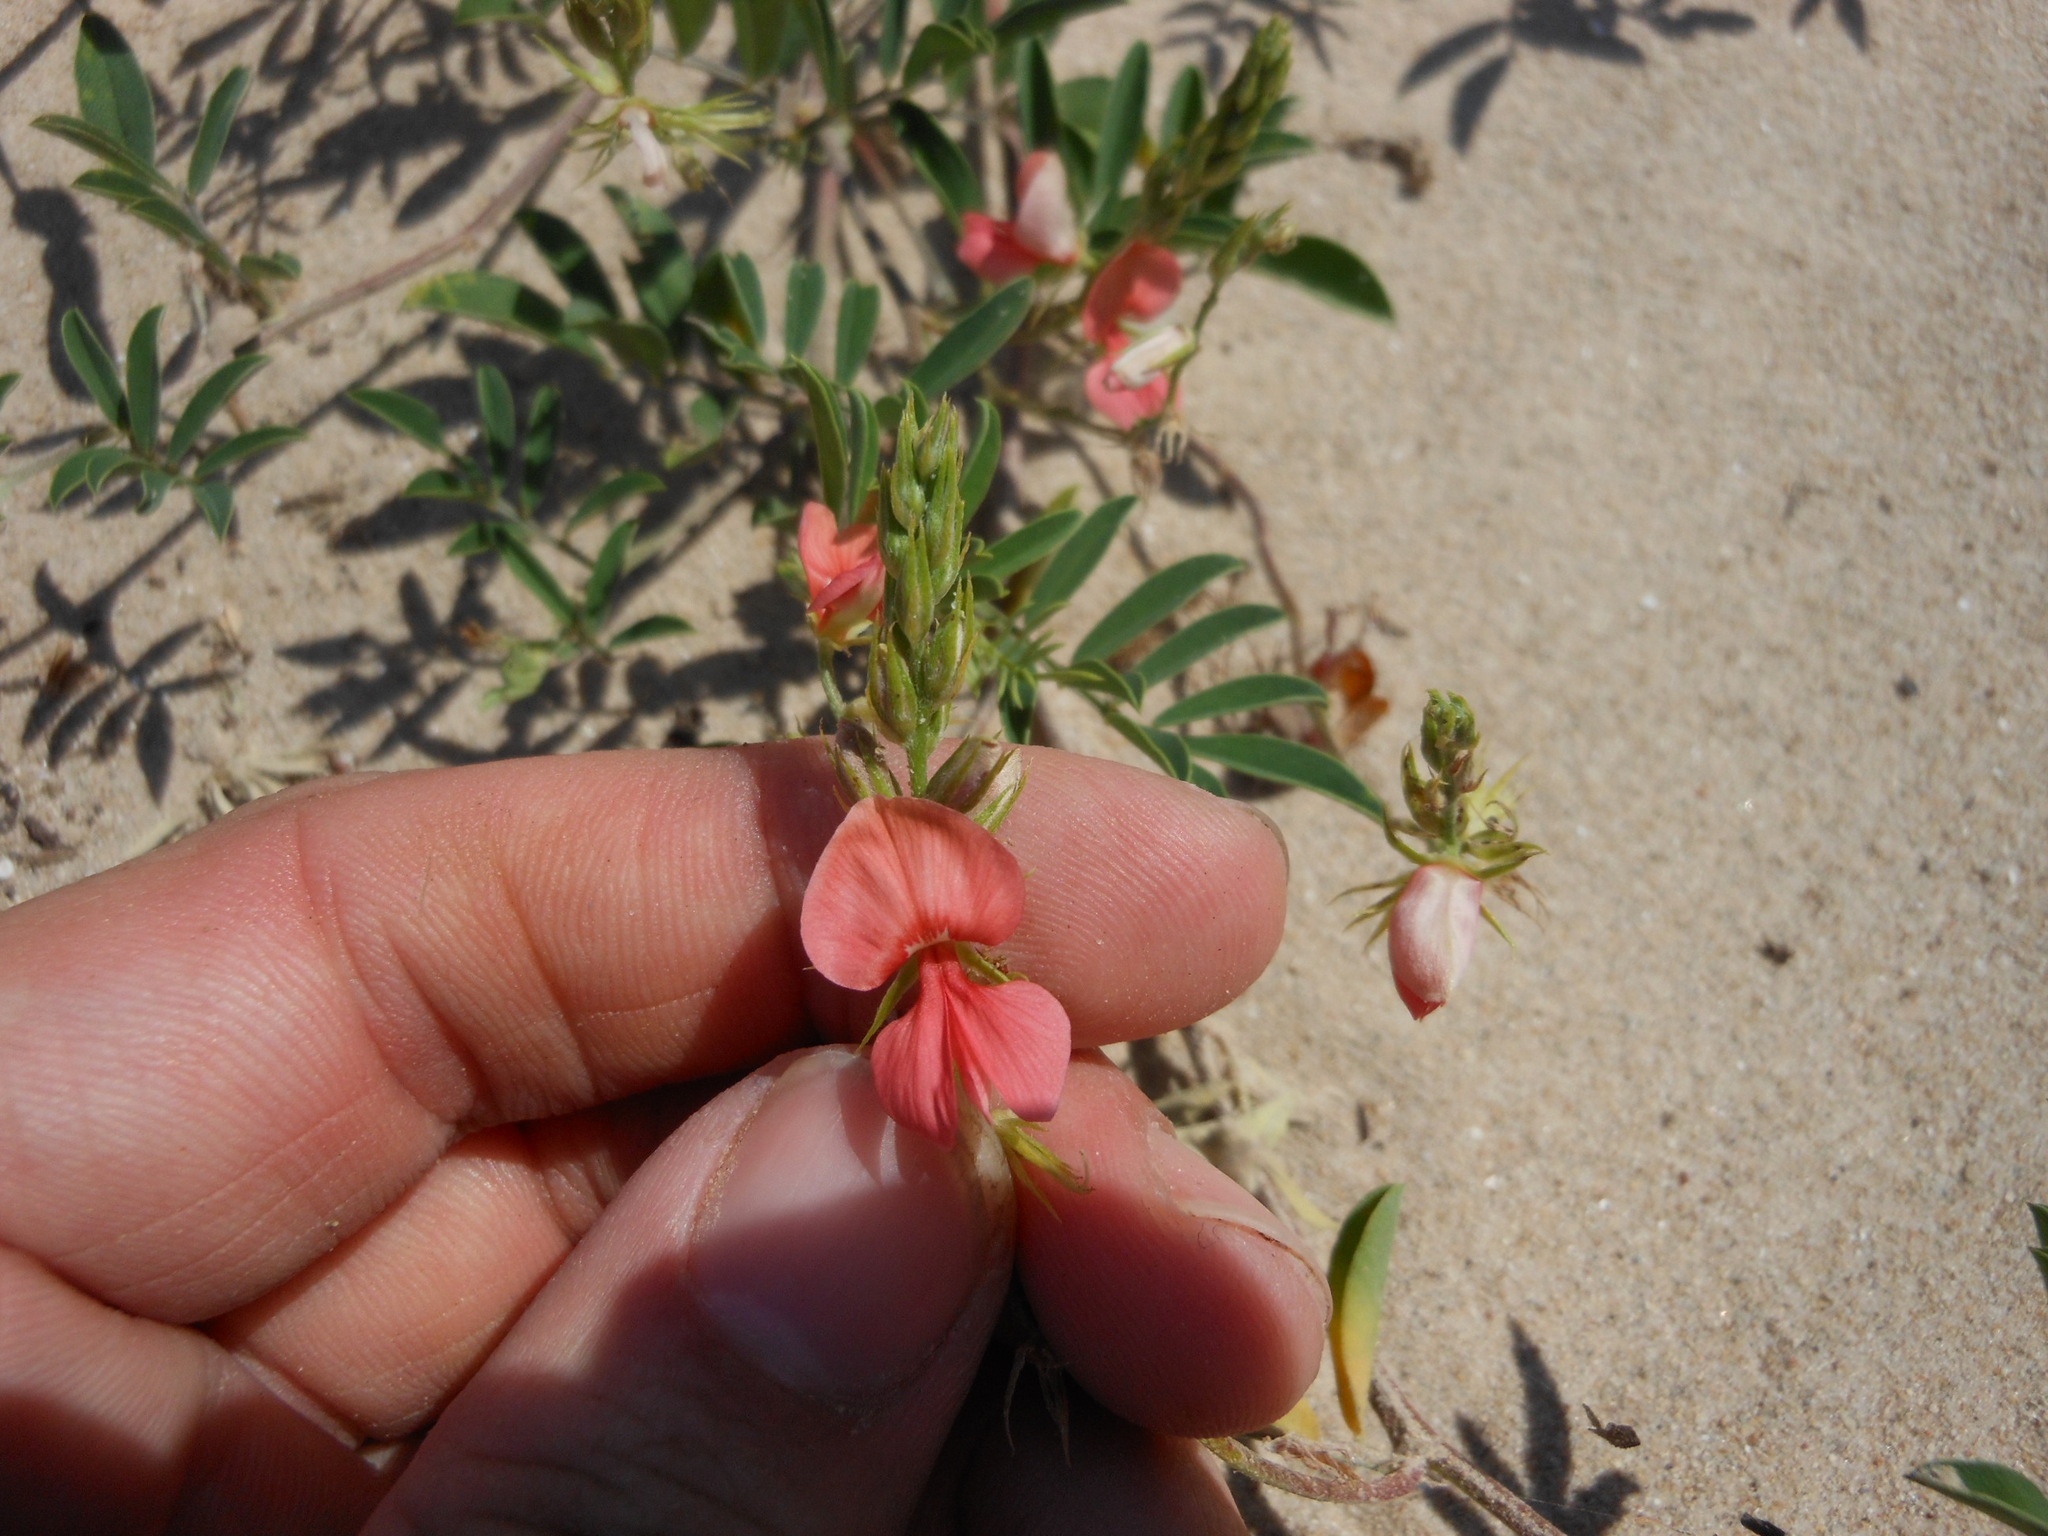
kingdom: Plantae
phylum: Tracheophyta
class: Magnoliopsida
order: Fabales
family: Fabaceae
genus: Indigofera
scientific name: Indigofera miniata
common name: Coast indigo
